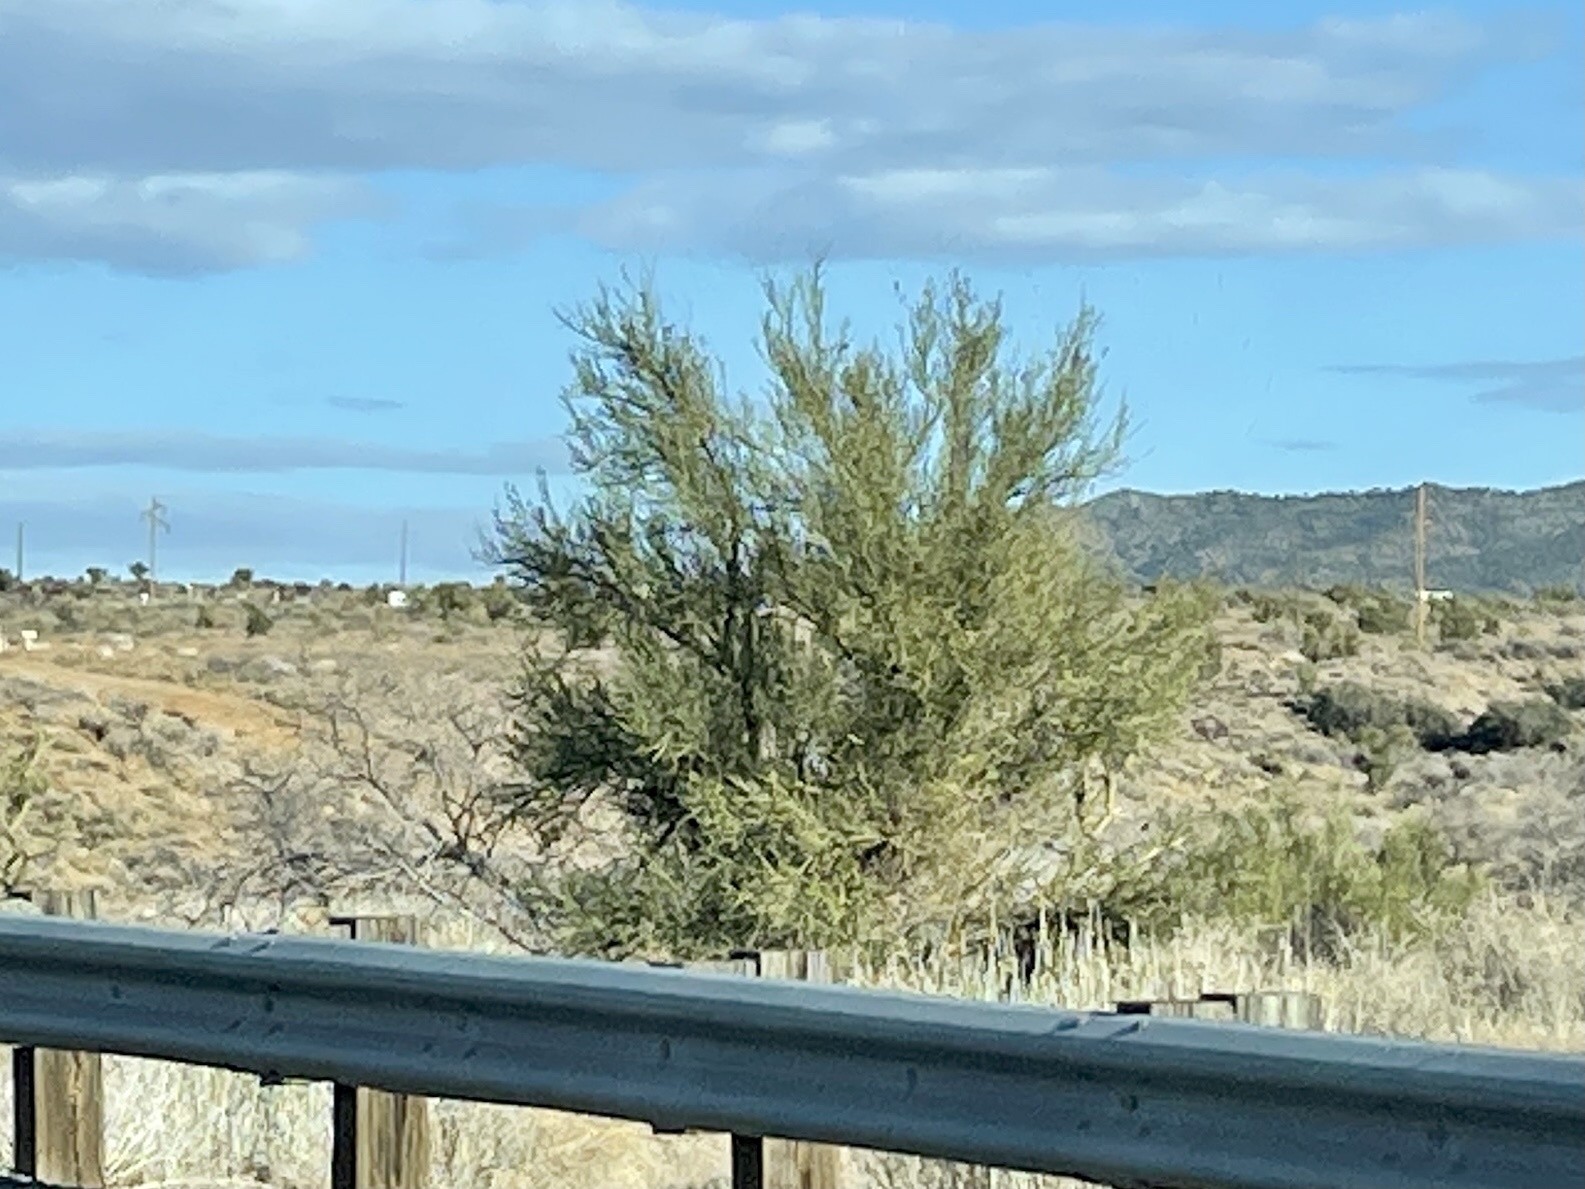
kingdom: Plantae
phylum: Tracheophyta
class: Magnoliopsida
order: Celastrales
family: Celastraceae
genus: Canotia
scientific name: Canotia holacantha
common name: Crucifixion thorns
